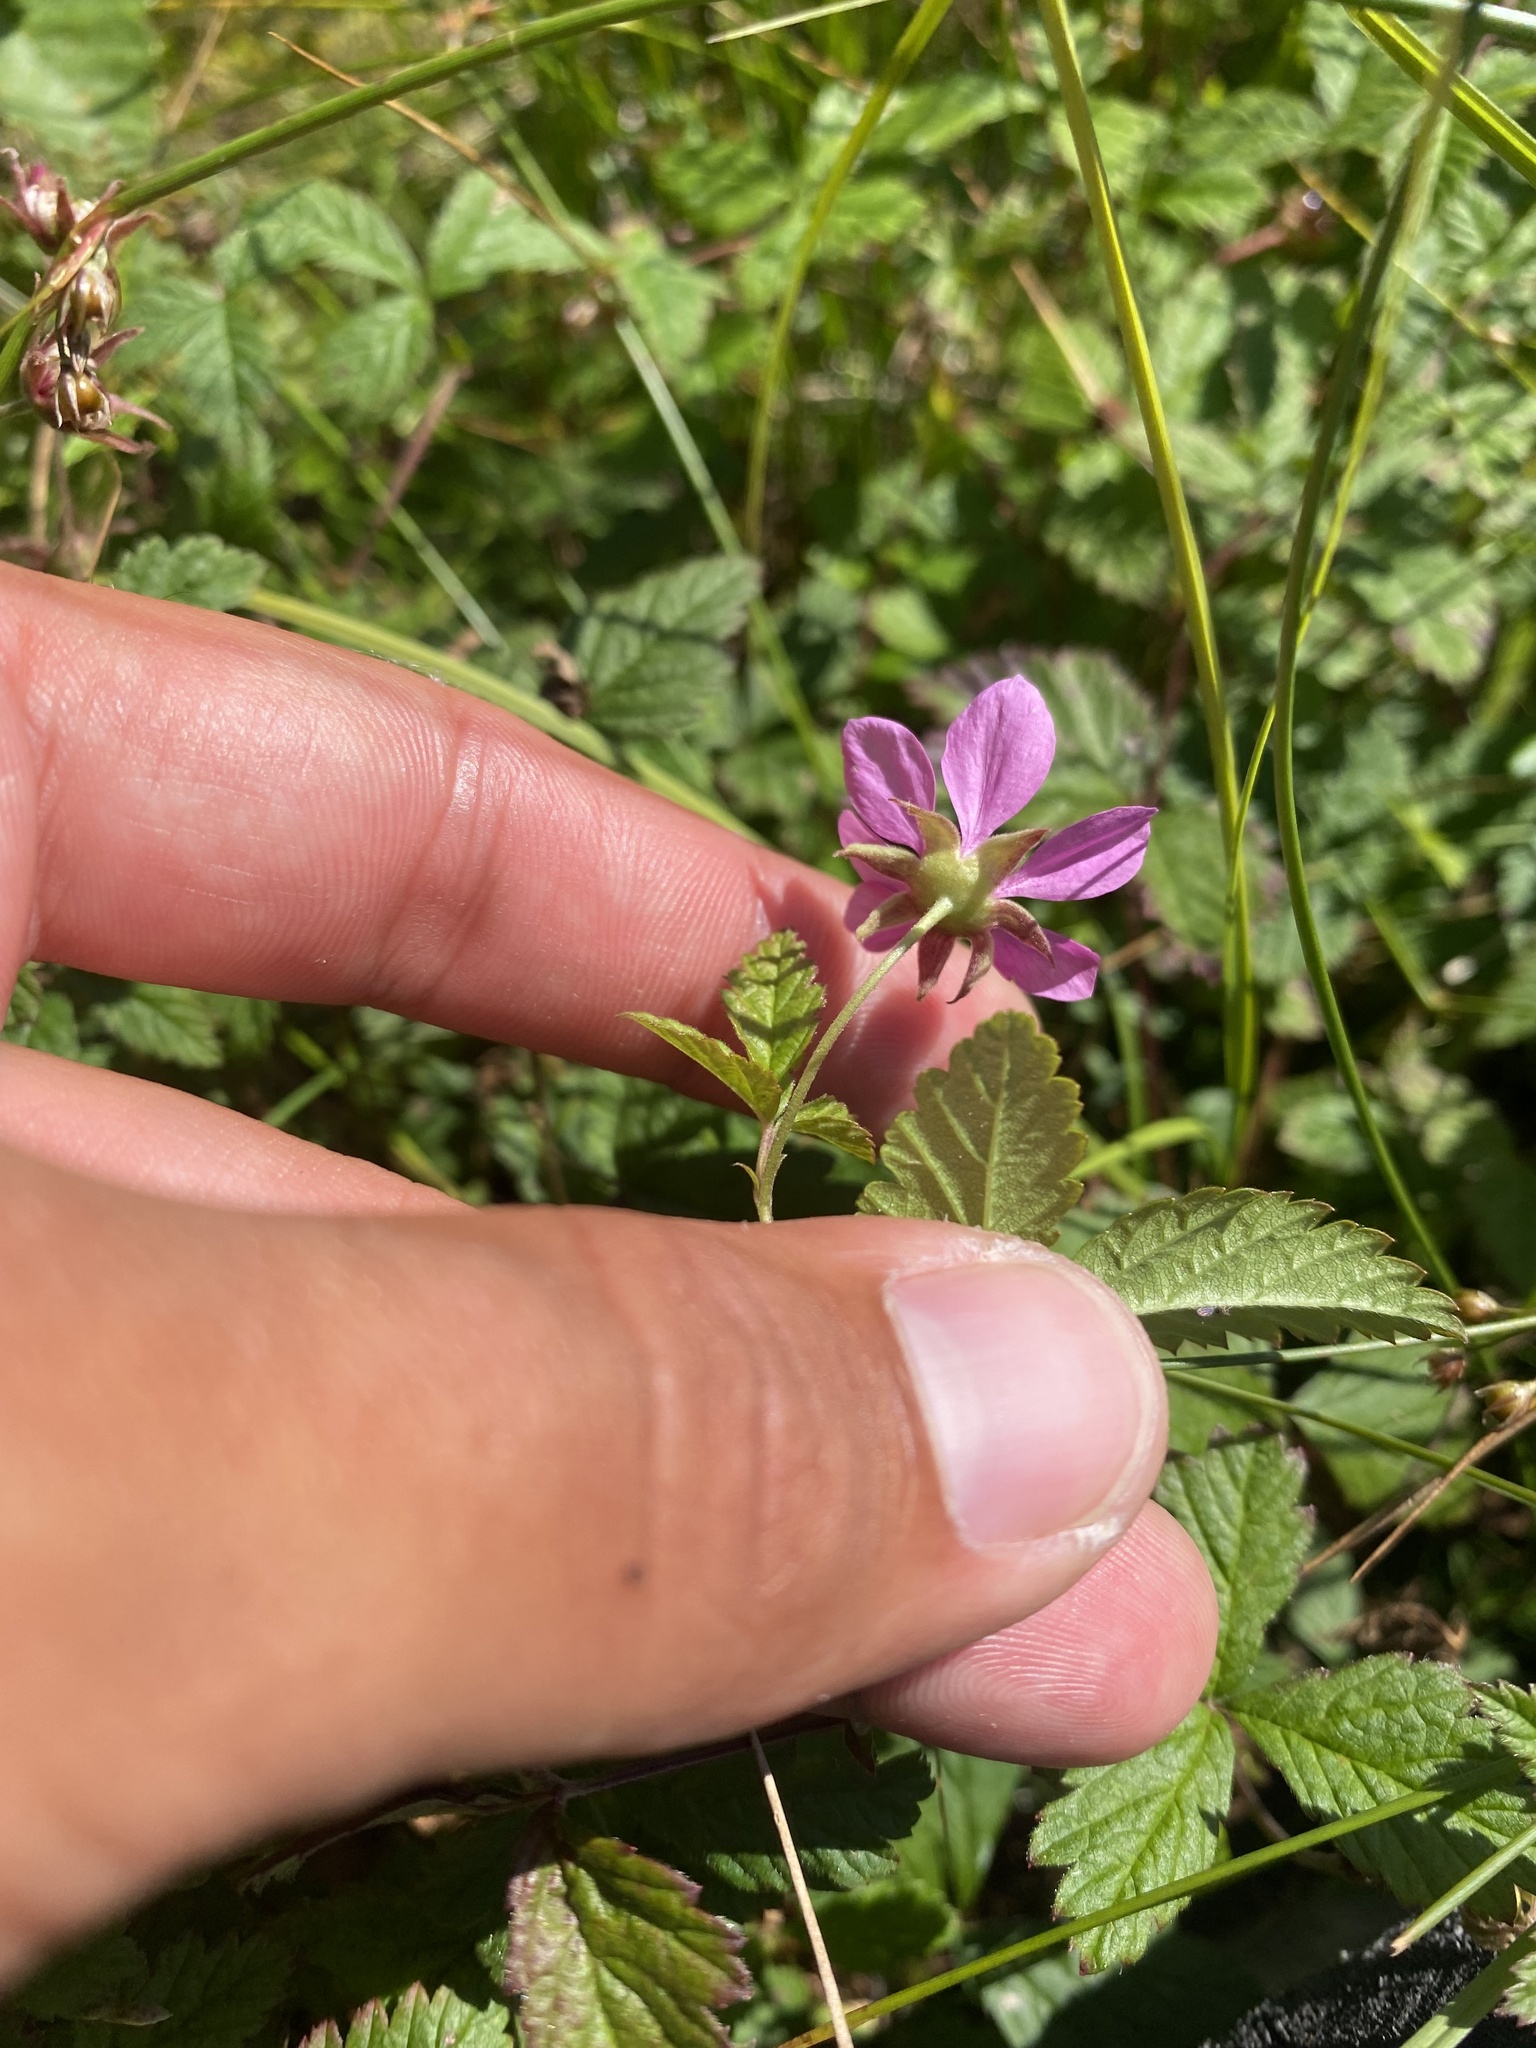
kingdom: Plantae
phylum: Tracheophyta
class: Magnoliopsida
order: Rosales
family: Rosaceae
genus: Rubus
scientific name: Rubus arcticus
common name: Arctic bramble
